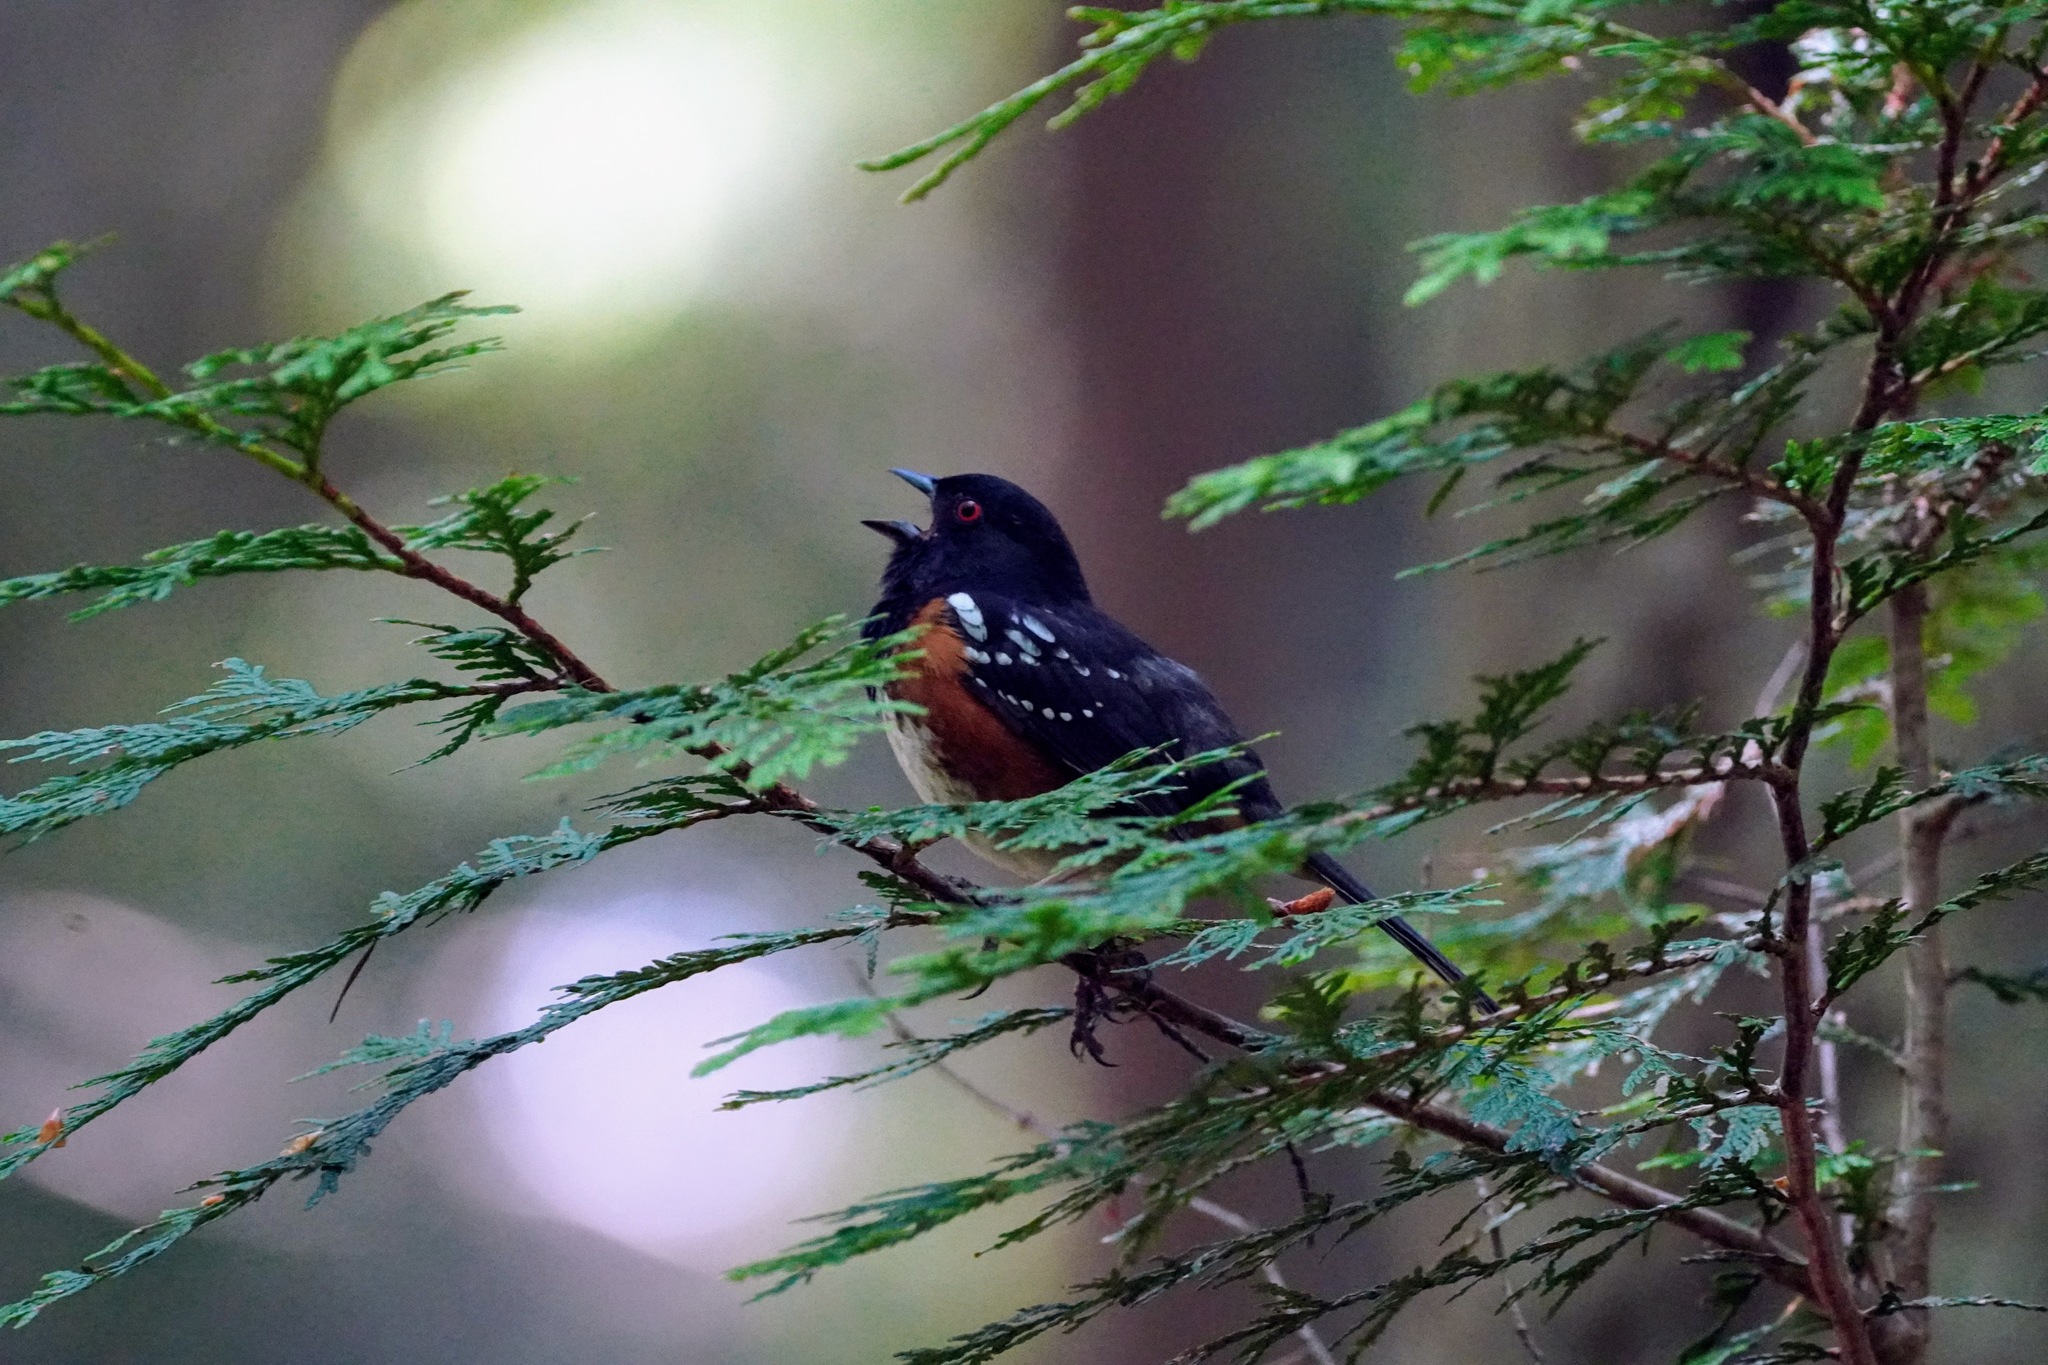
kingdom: Animalia
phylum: Chordata
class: Aves
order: Passeriformes
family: Passerellidae
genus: Pipilo
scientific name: Pipilo maculatus
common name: Spotted towhee
